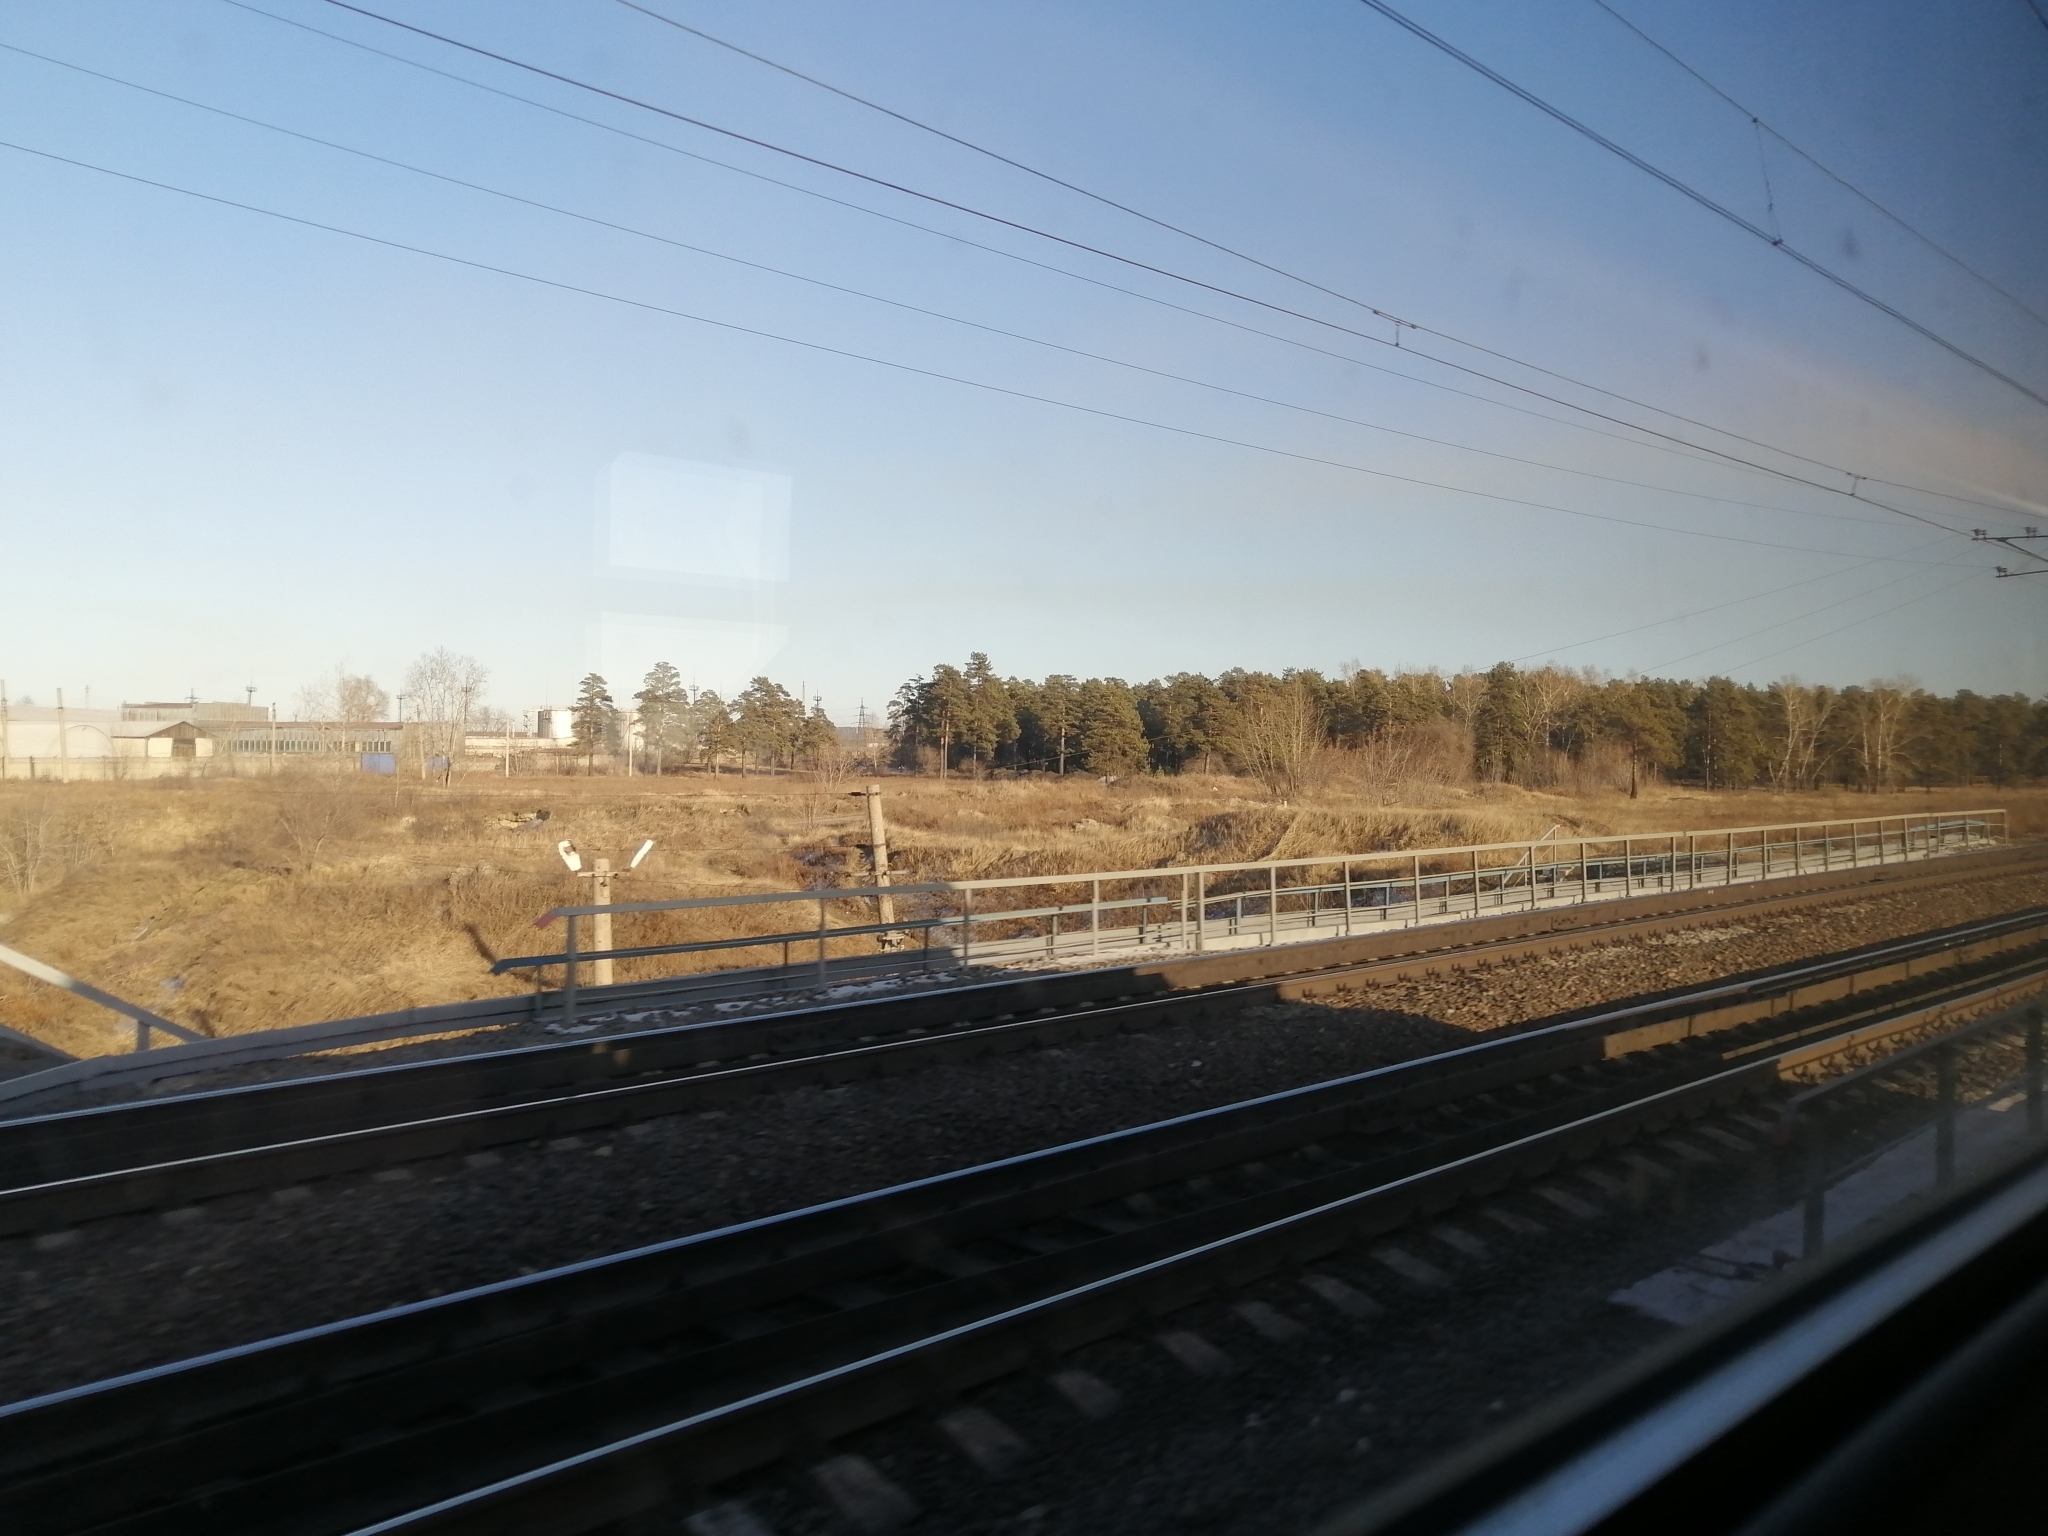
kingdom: Plantae
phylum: Tracheophyta
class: Pinopsida
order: Pinales
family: Pinaceae
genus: Pinus
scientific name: Pinus sylvestris
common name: Scots pine
